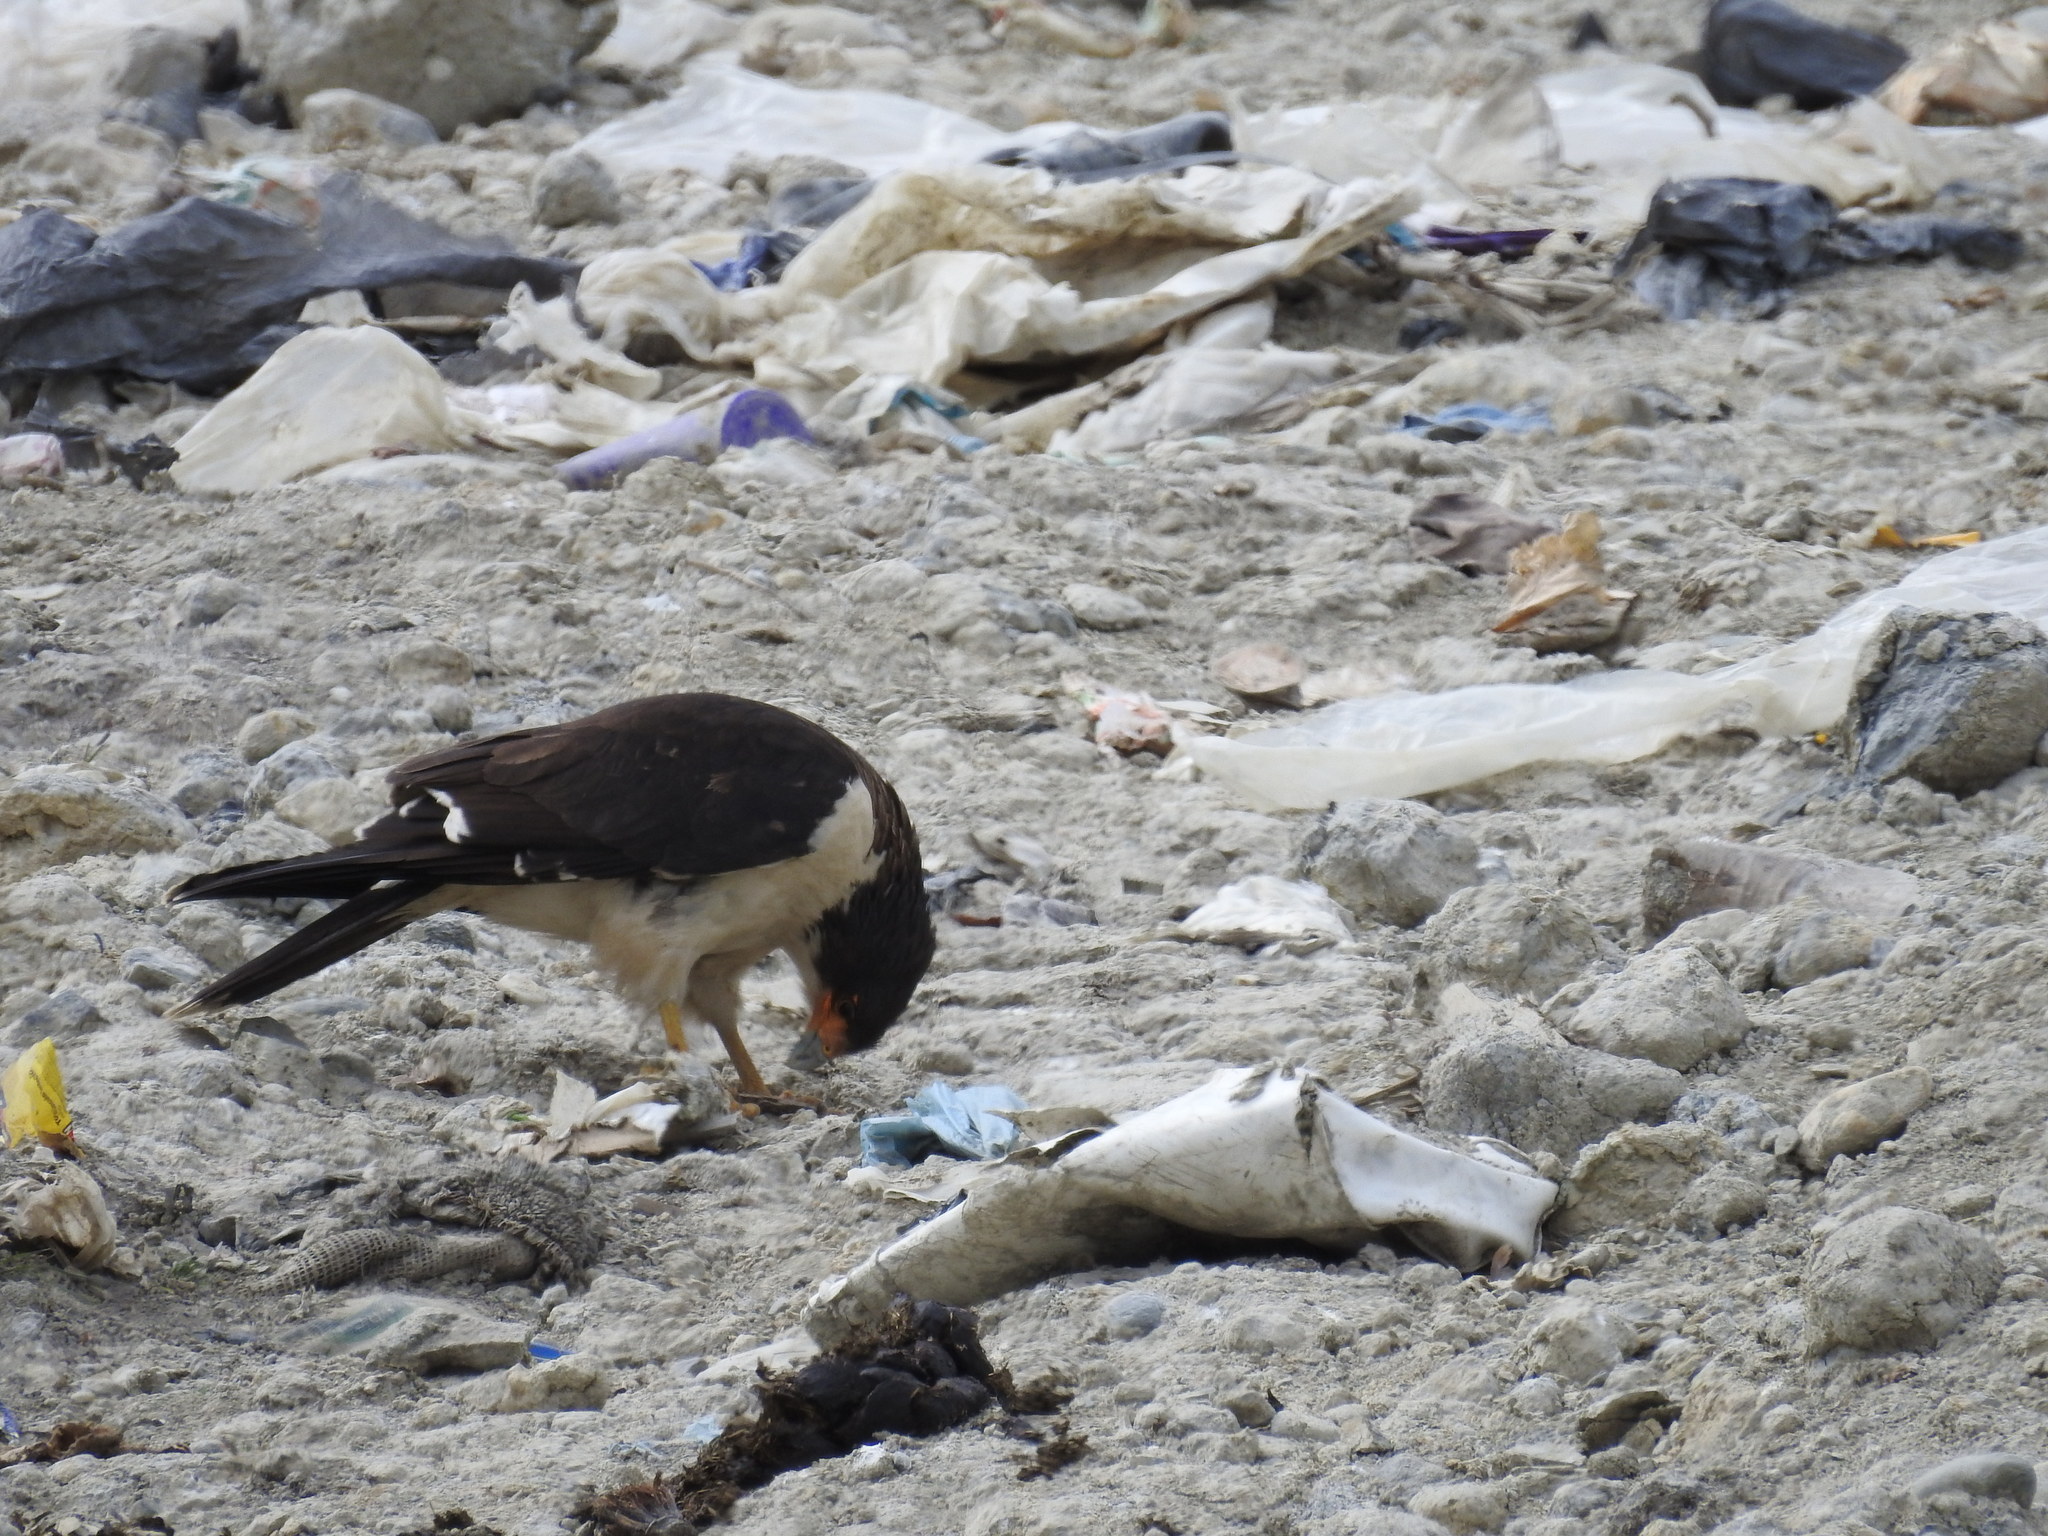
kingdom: Animalia
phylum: Chordata
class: Aves
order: Falconiformes
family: Falconidae
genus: Daptrius
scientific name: Daptrius
